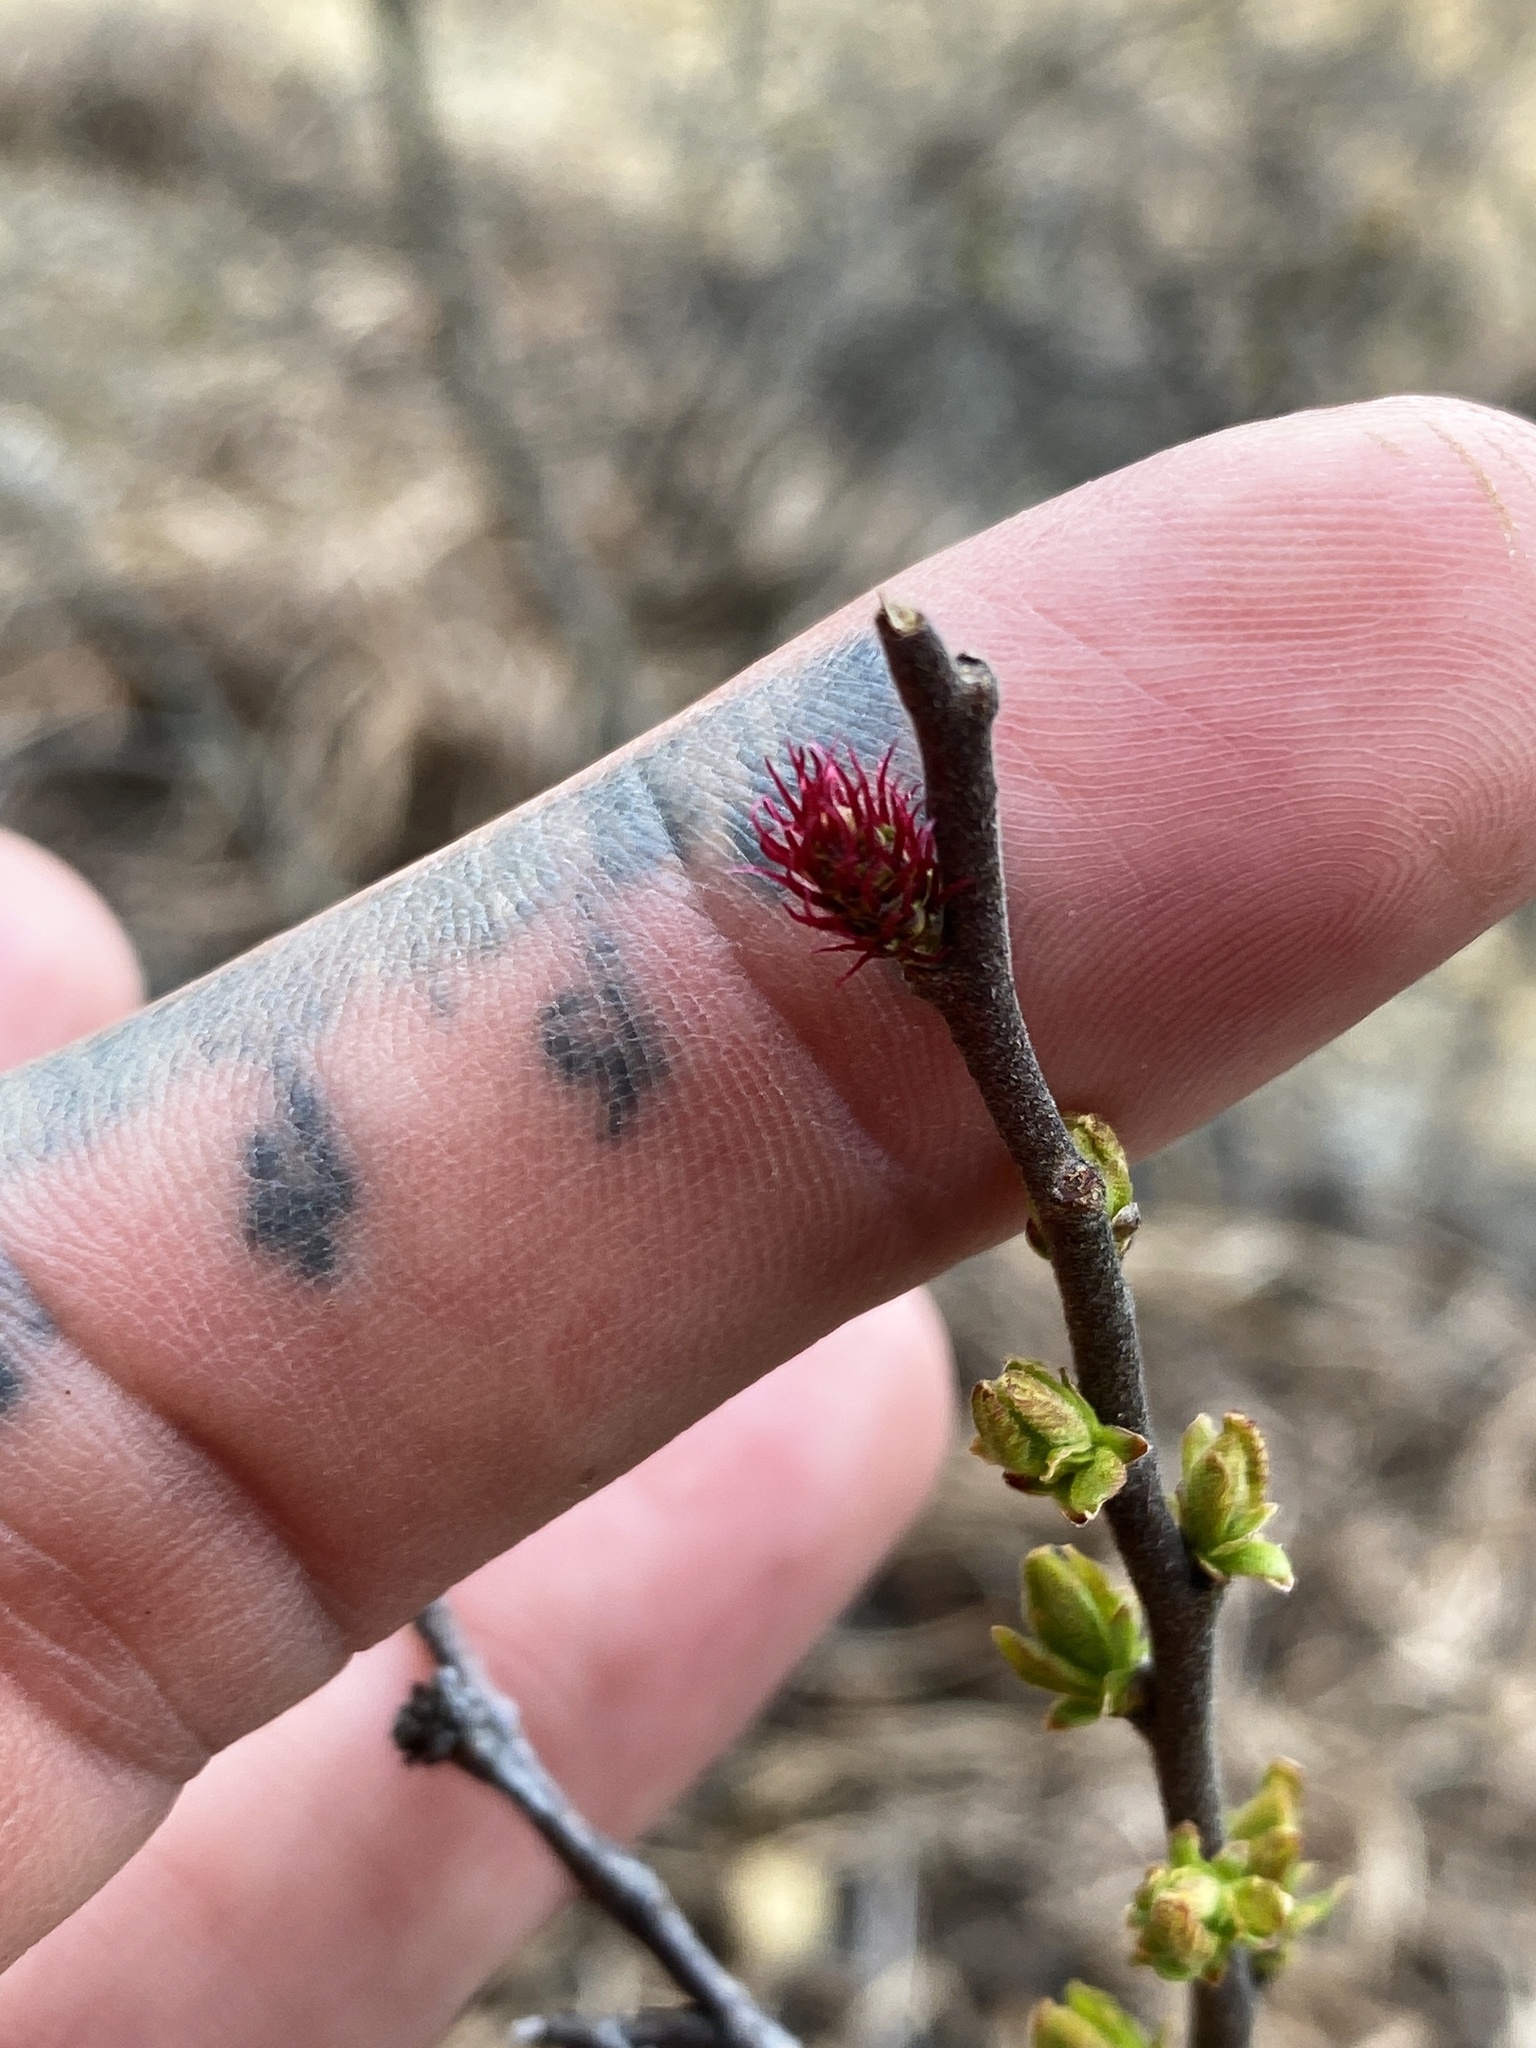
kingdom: Plantae
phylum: Tracheophyta
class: Magnoliopsida
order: Fagales
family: Myricaceae
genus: Comptonia
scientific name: Comptonia peregrina
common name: Sweet-fern
